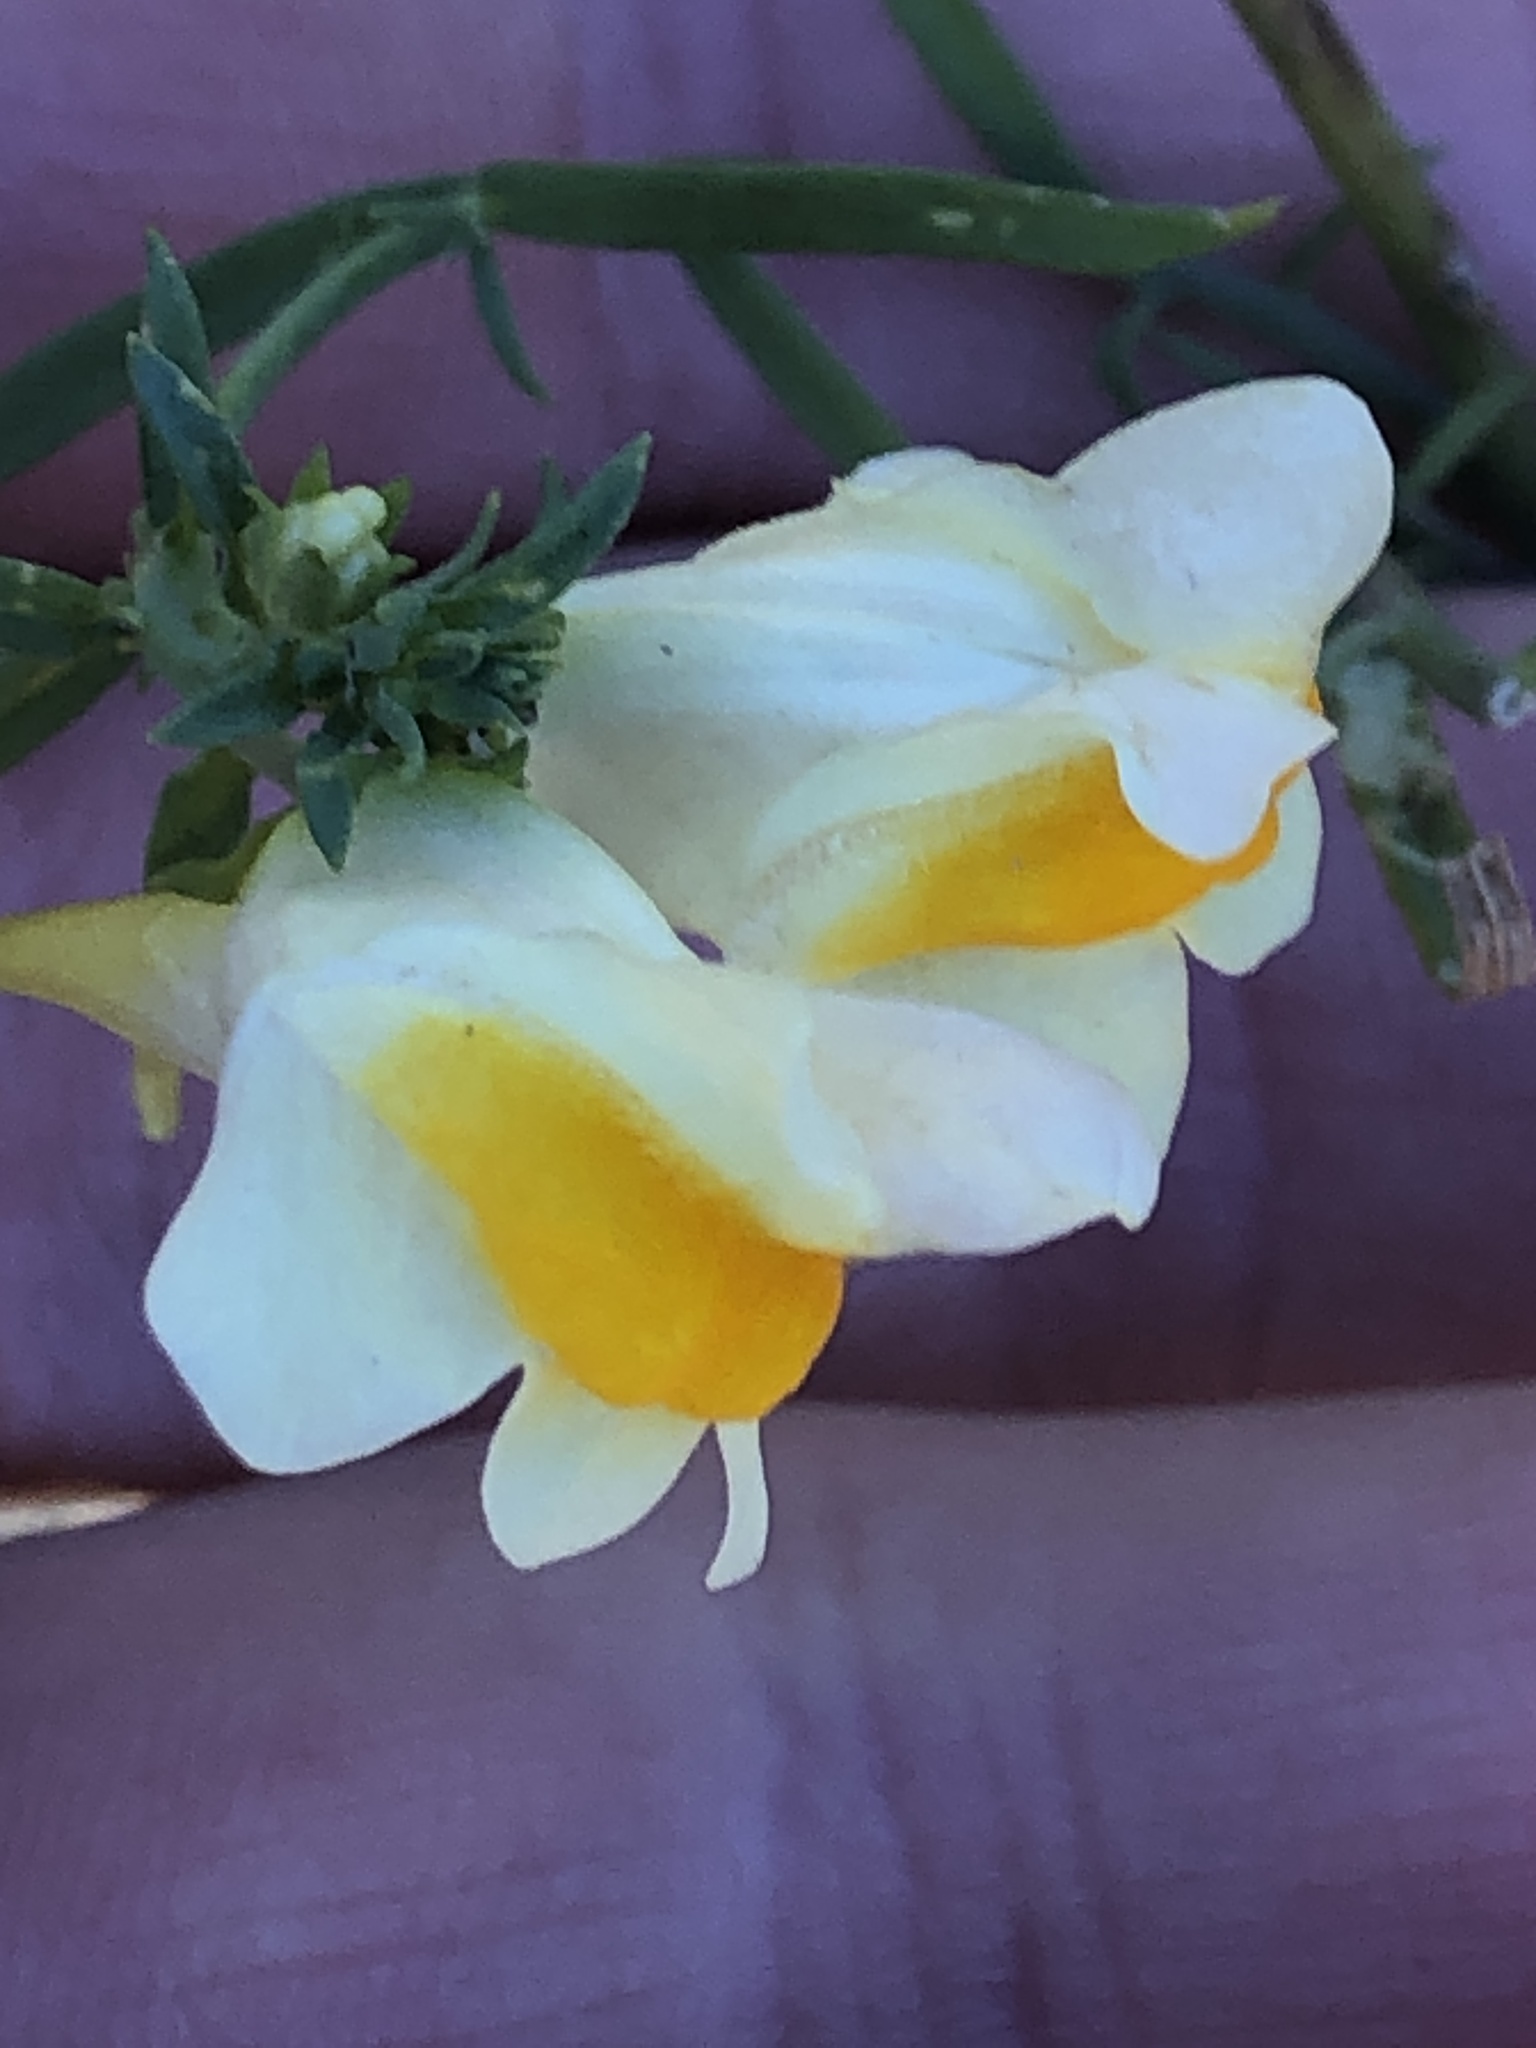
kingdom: Plantae
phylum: Tracheophyta
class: Magnoliopsida
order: Lamiales
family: Plantaginaceae
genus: Linaria
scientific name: Linaria vulgaris
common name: Butter and eggs
